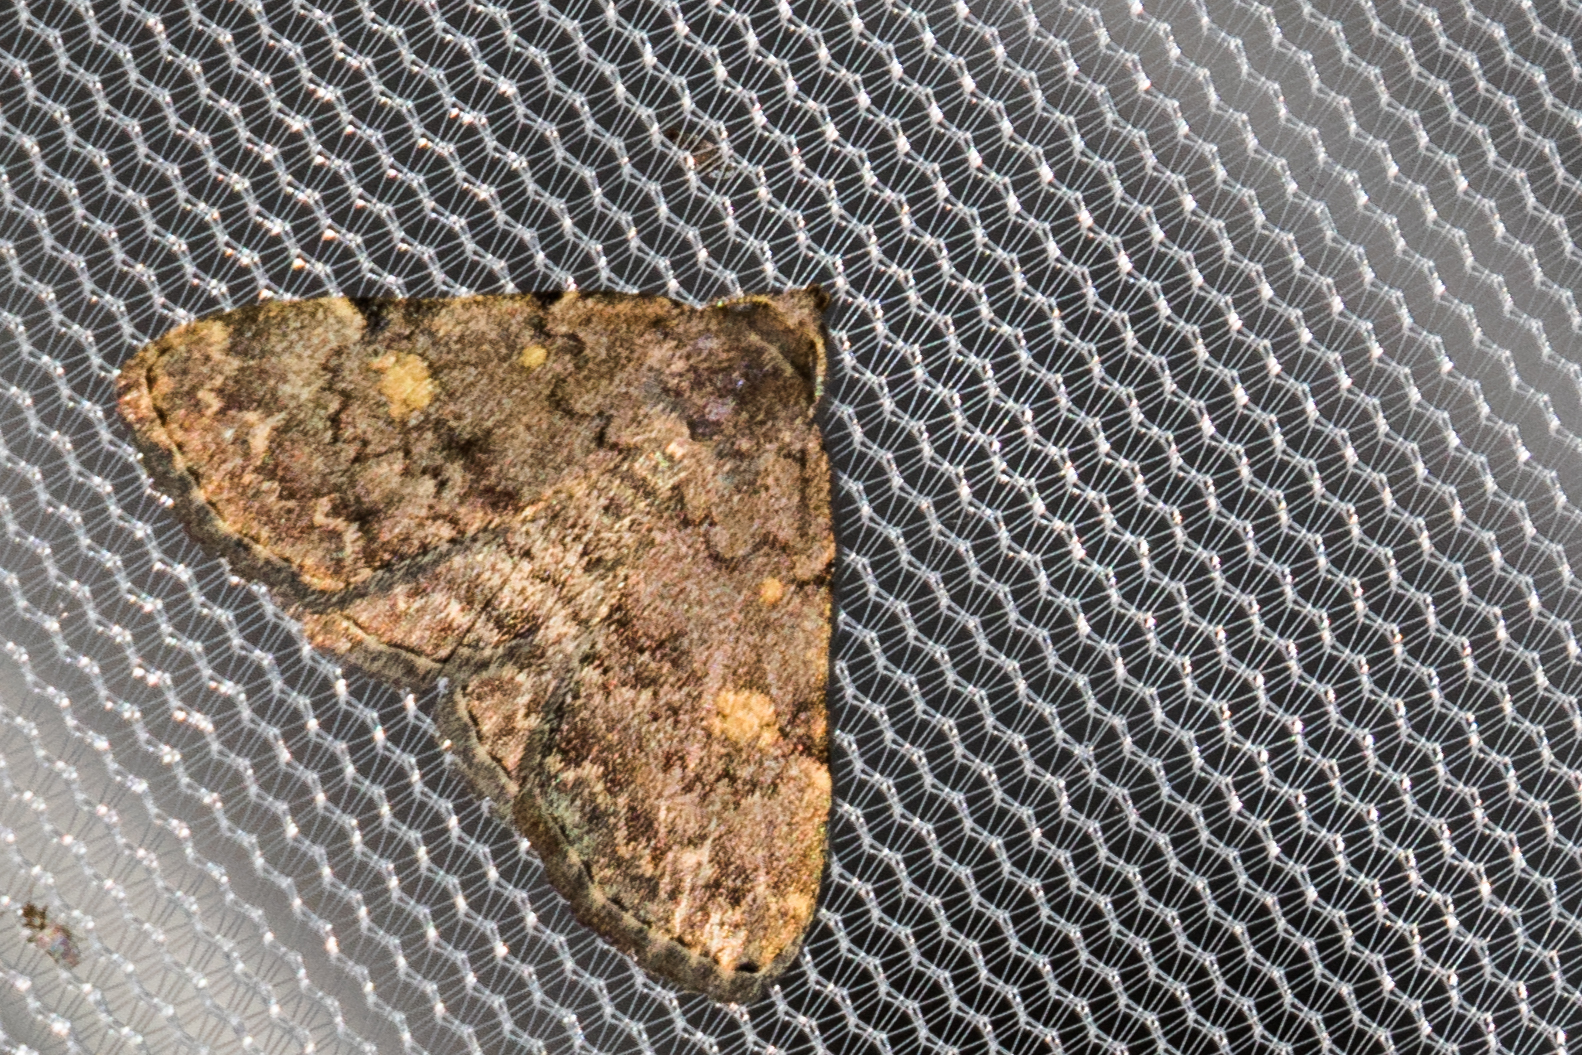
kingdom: Animalia
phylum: Arthropoda
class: Insecta
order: Lepidoptera
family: Erebidae
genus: Idia
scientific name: Idia aemula
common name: Common idia moth
